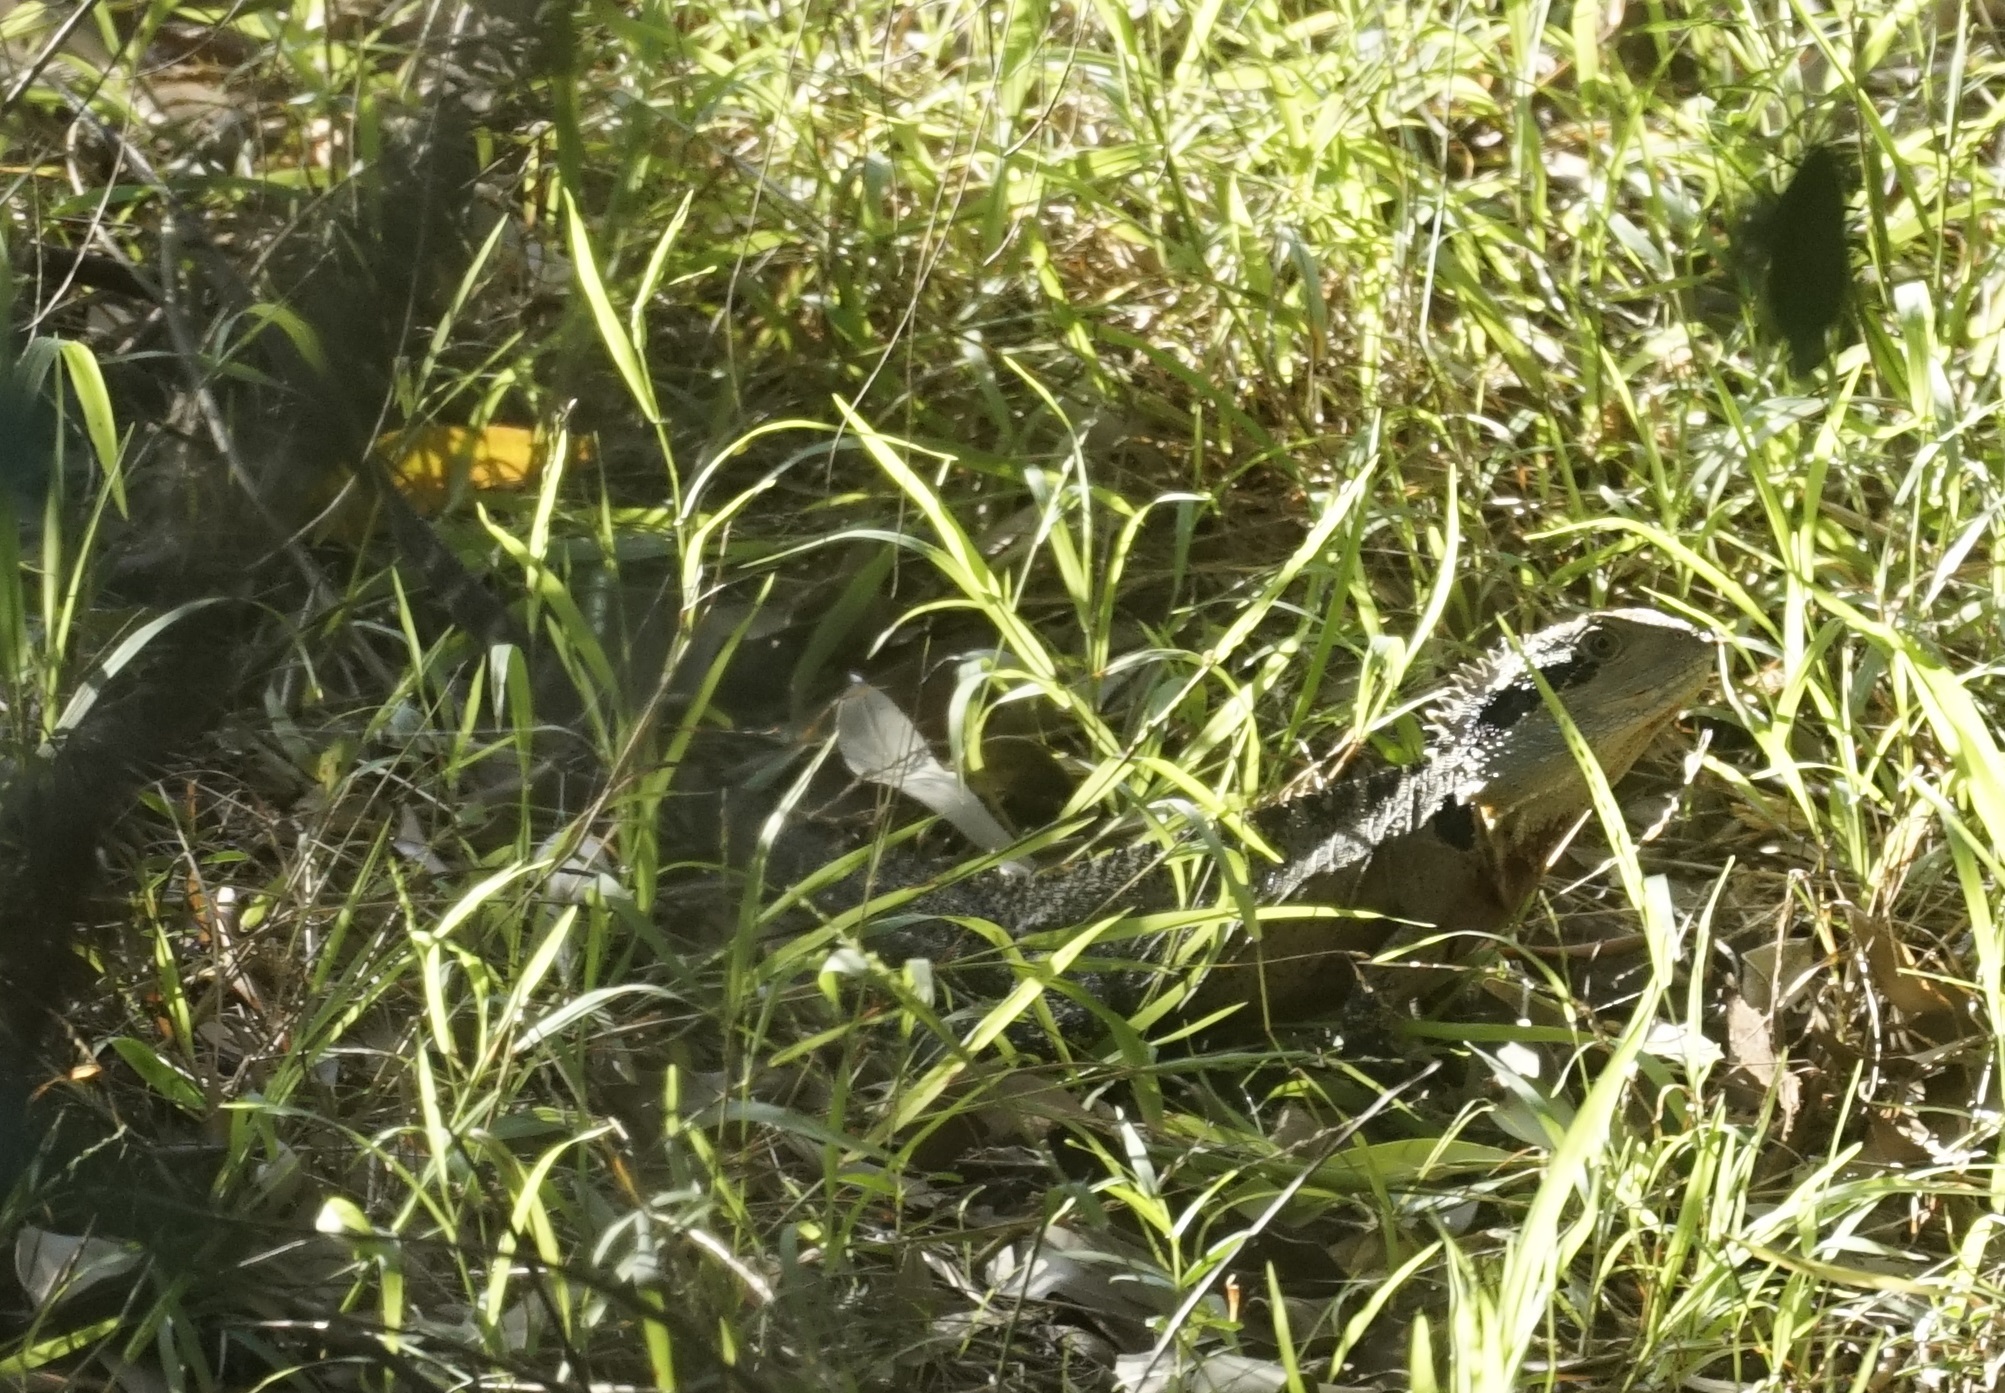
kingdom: Animalia
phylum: Chordata
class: Squamata
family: Agamidae
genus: Intellagama
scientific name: Intellagama lesueurii
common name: Eastern water dragon
